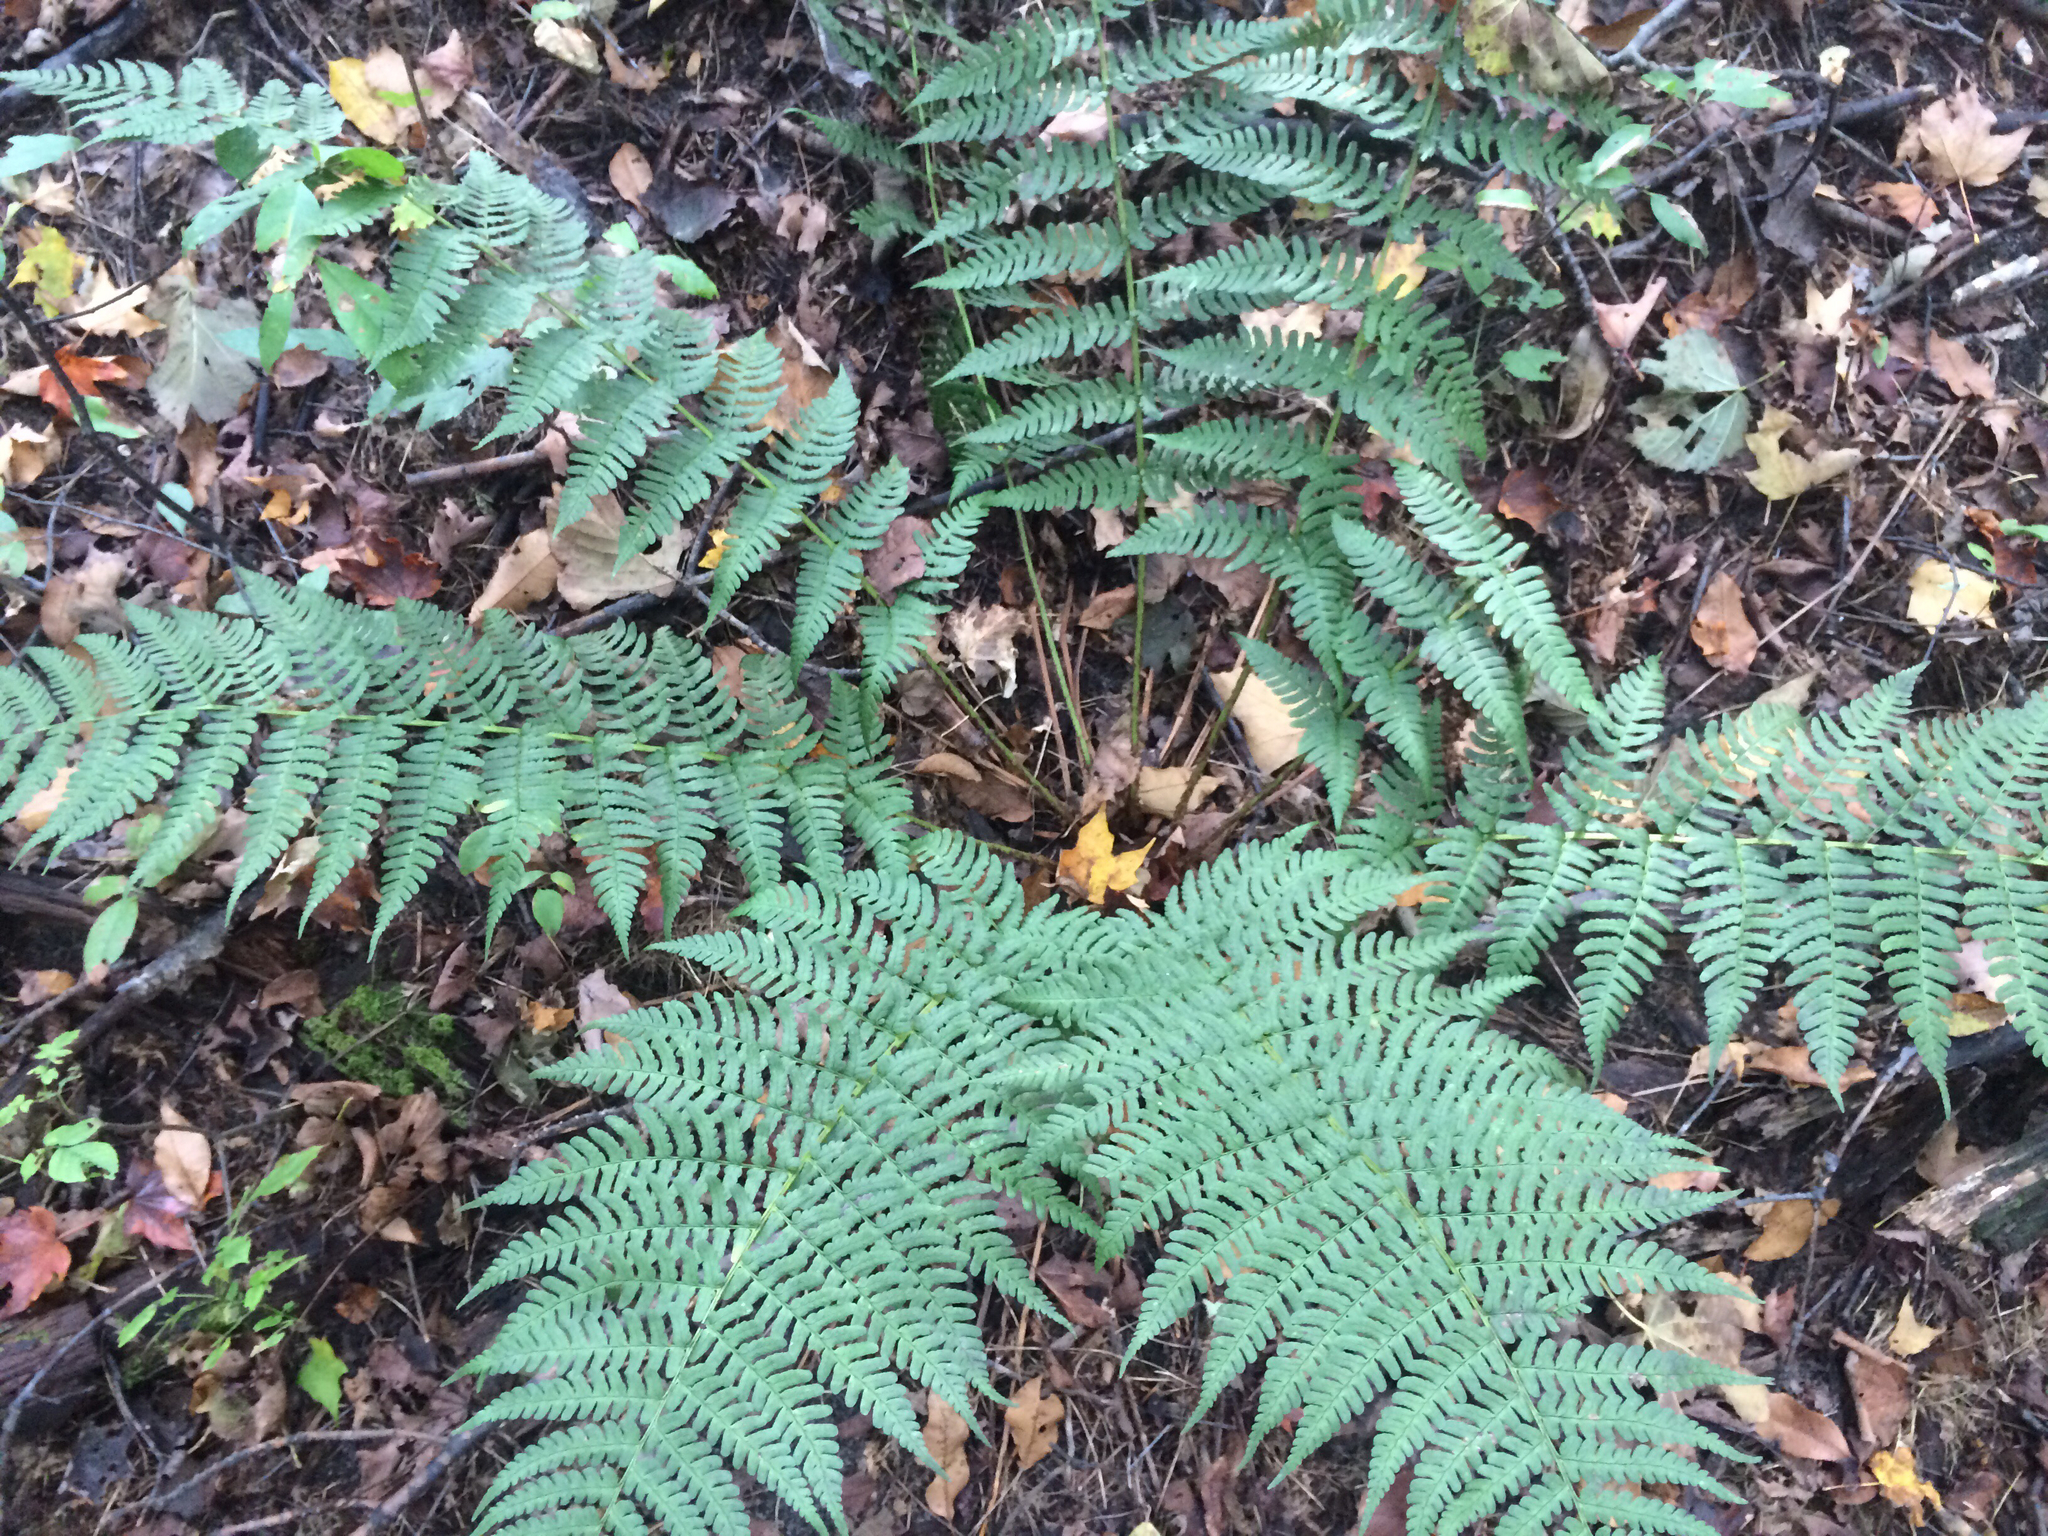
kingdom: Plantae
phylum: Tracheophyta
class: Polypodiopsida
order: Polypodiales
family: Dryopteridaceae
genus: Dryopteris
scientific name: Dryopteris marginalis
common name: Marginal wood fern
